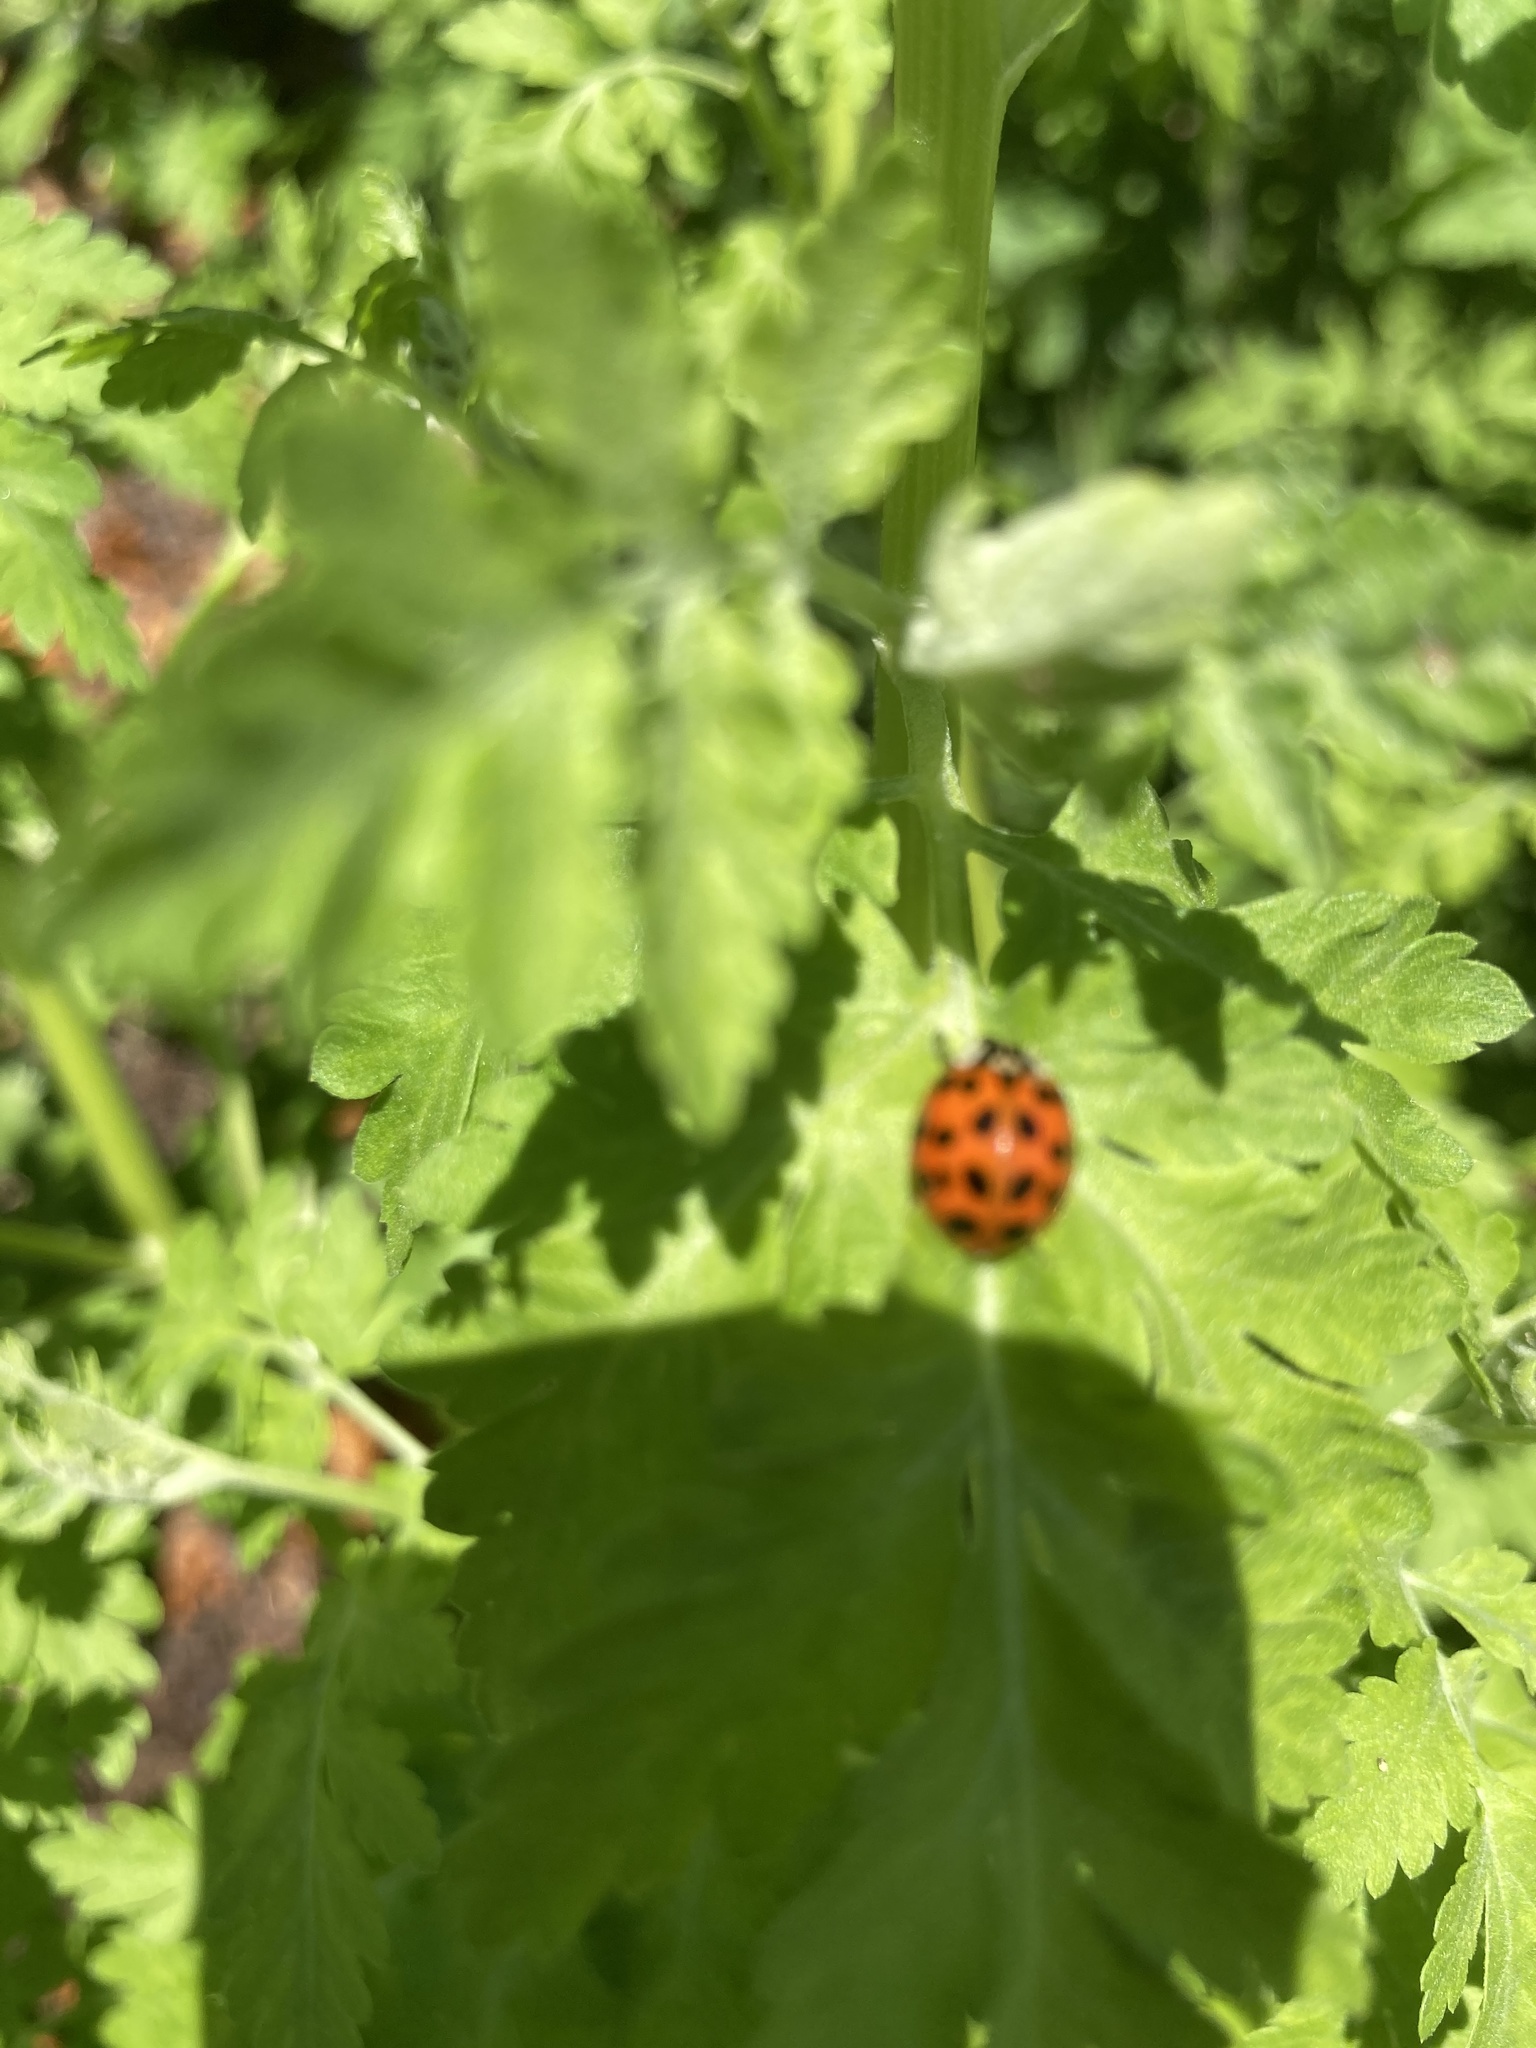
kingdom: Animalia
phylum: Arthropoda
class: Insecta
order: Coleoptera
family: Coccinellidae
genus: Harmonia
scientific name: Harmonia axyridis
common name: Harlequin ladybird
